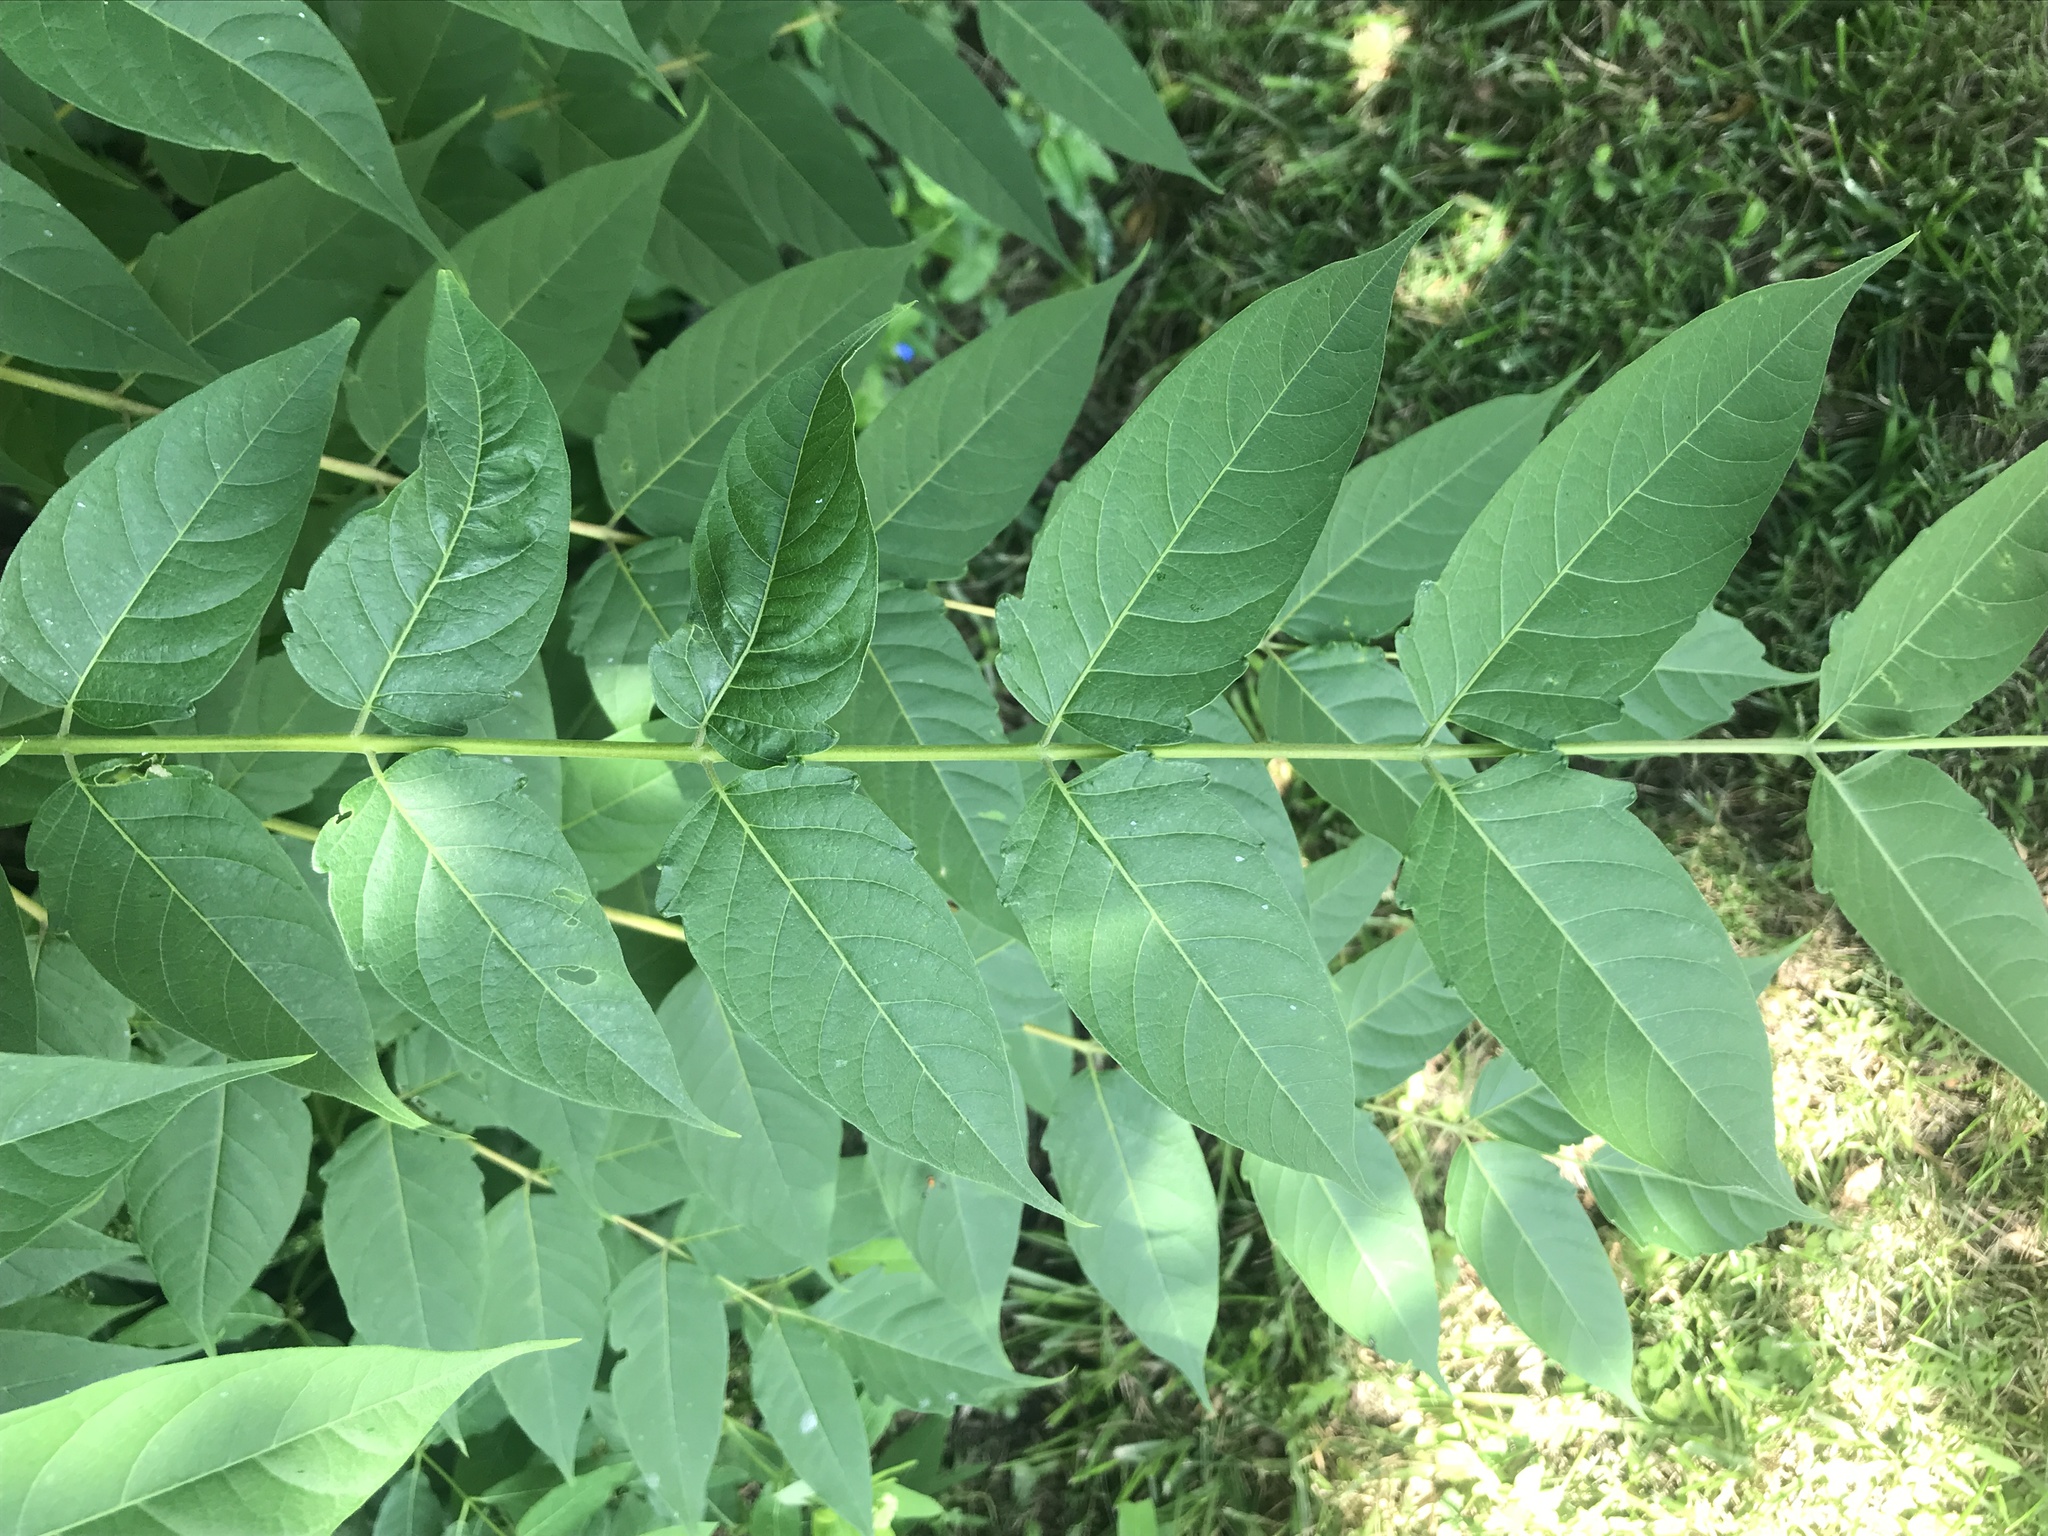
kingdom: Plantae
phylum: Tracheophyta
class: Magnoliopsida
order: Sapindales
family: Simaroubaceae
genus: Ailanthus
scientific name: Ailanthus altissima
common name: Tree-of-heaven
